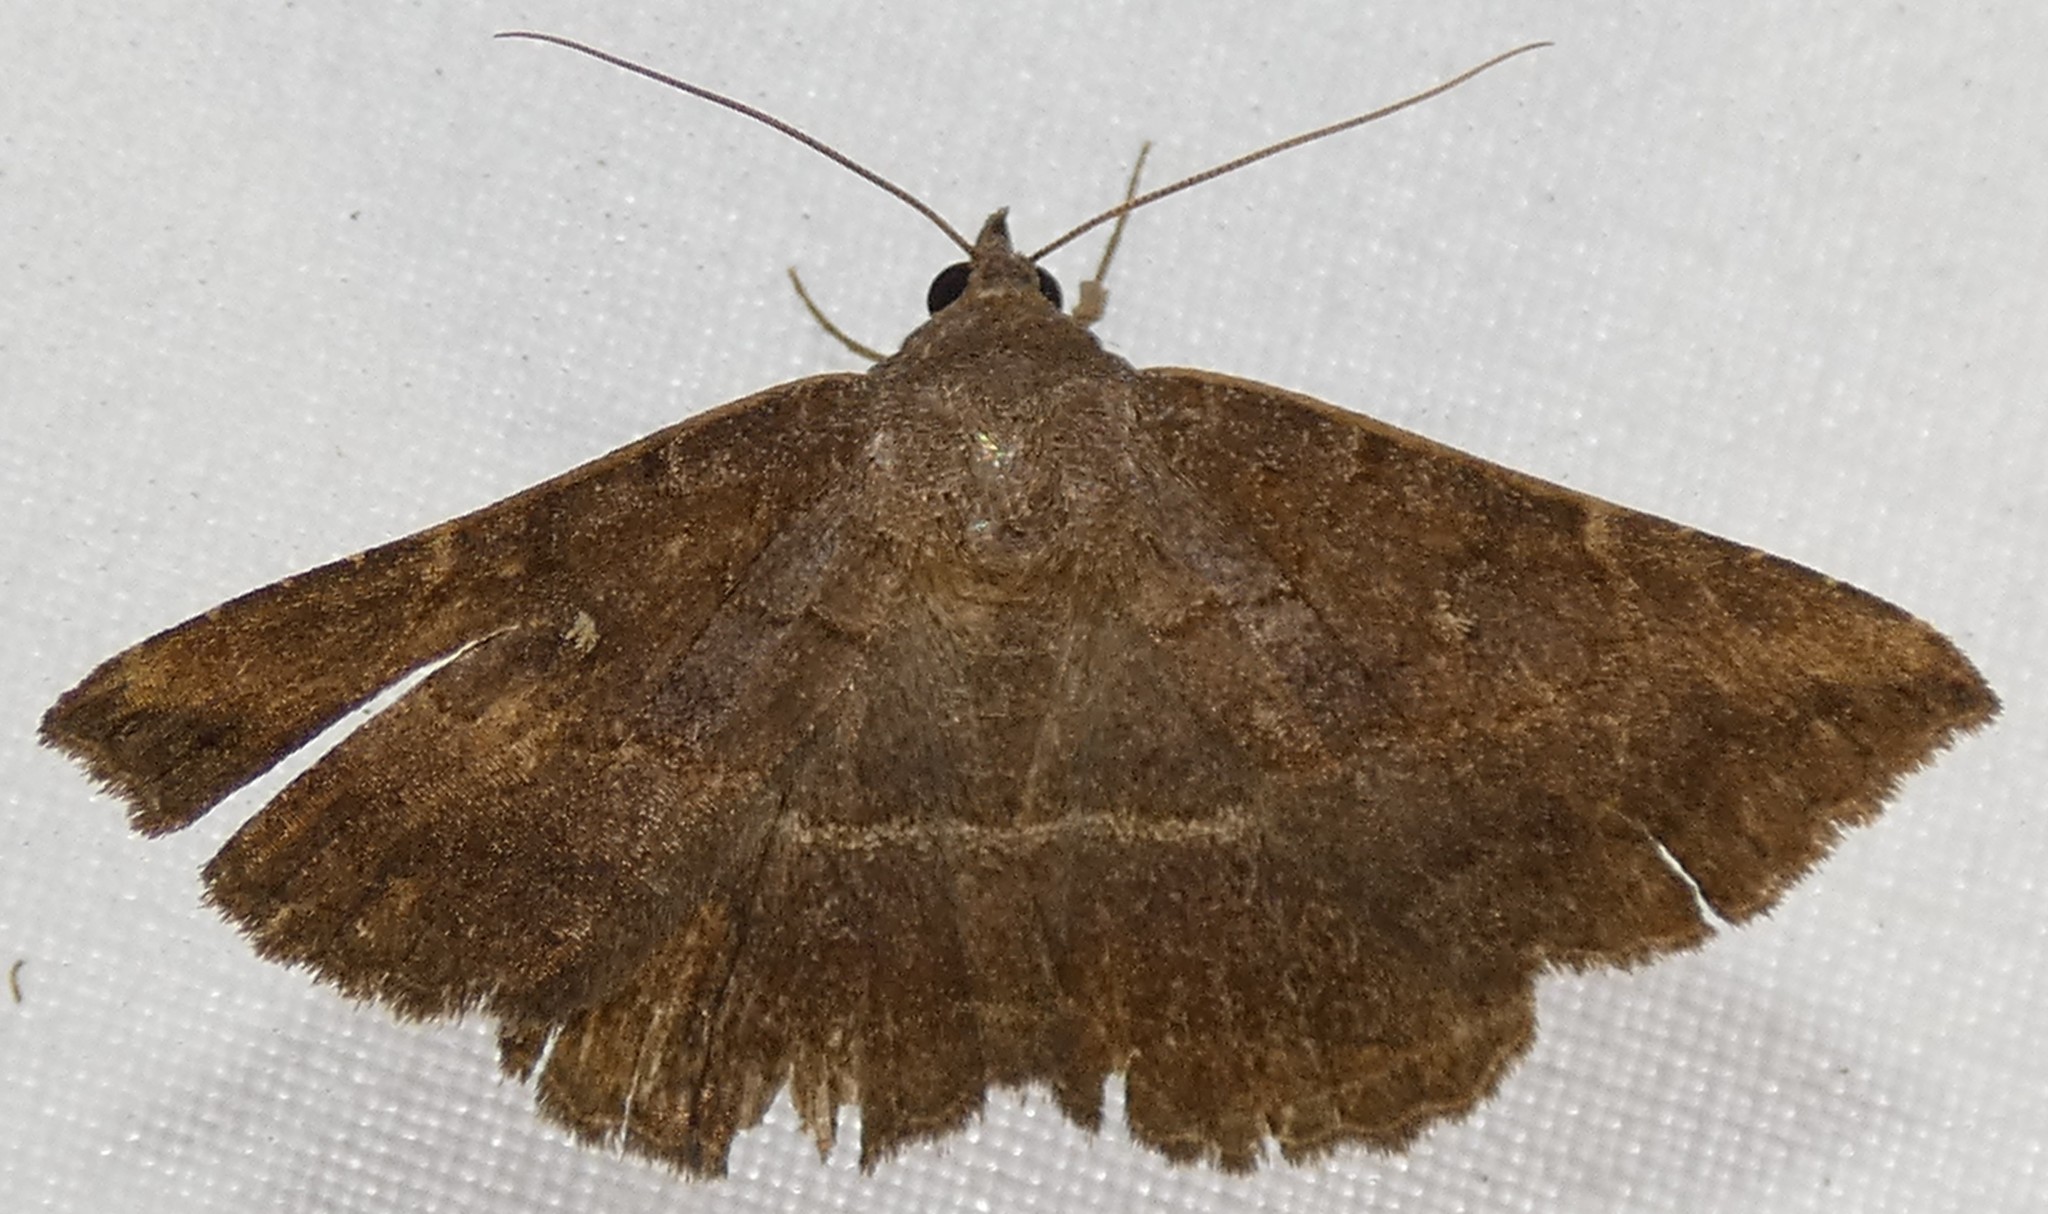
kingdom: Animalia
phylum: Arthropoda
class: Insecta
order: Lepidoptera
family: Erebidae
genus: Lesmone
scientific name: Lesmone detrahens
